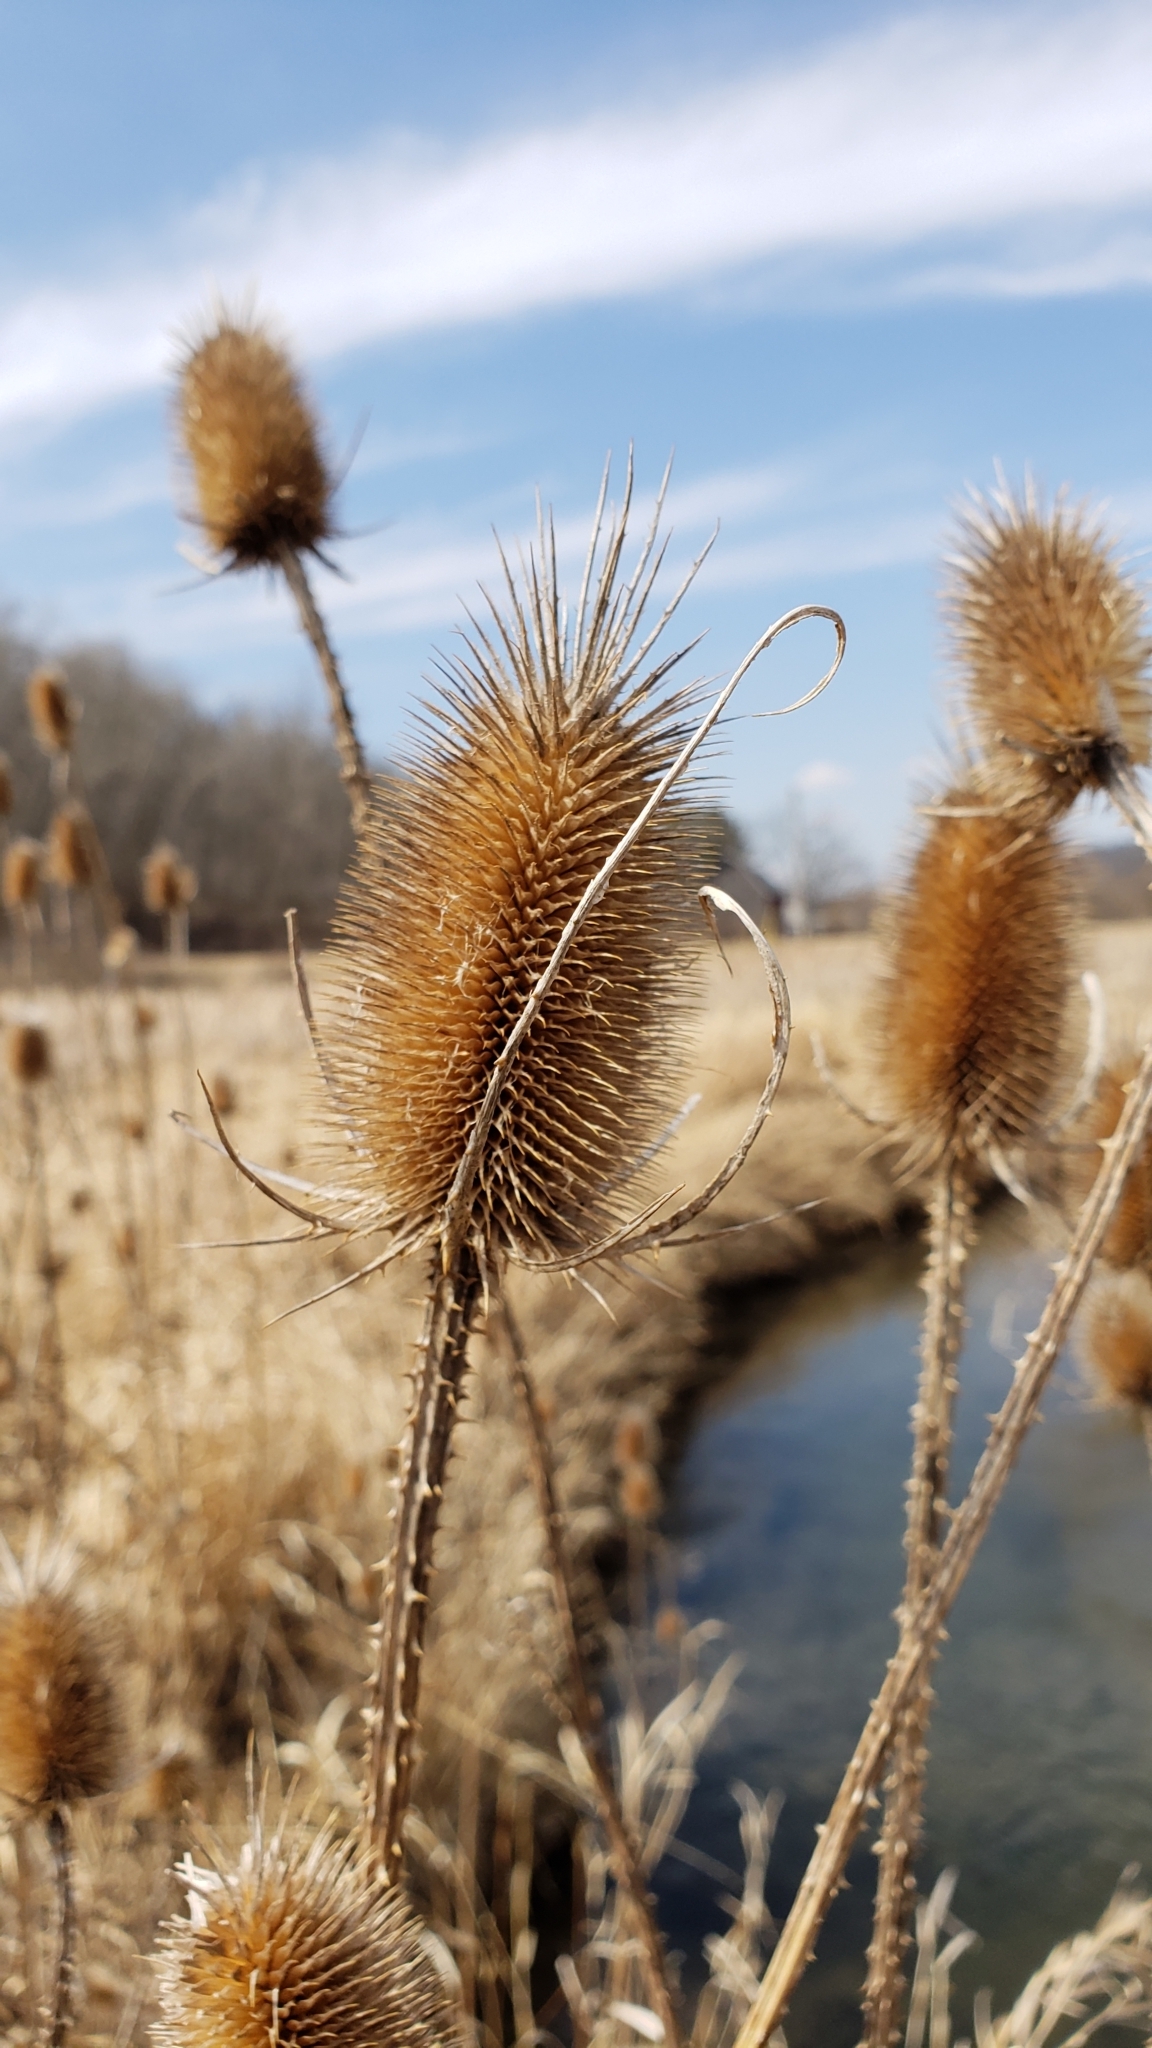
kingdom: Plantae
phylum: Tracheophyta
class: Magnoliopsida
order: Dipsacales
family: Caprifoliaceae
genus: Dipsacus
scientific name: Dipsacus fullonum
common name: Teasel
